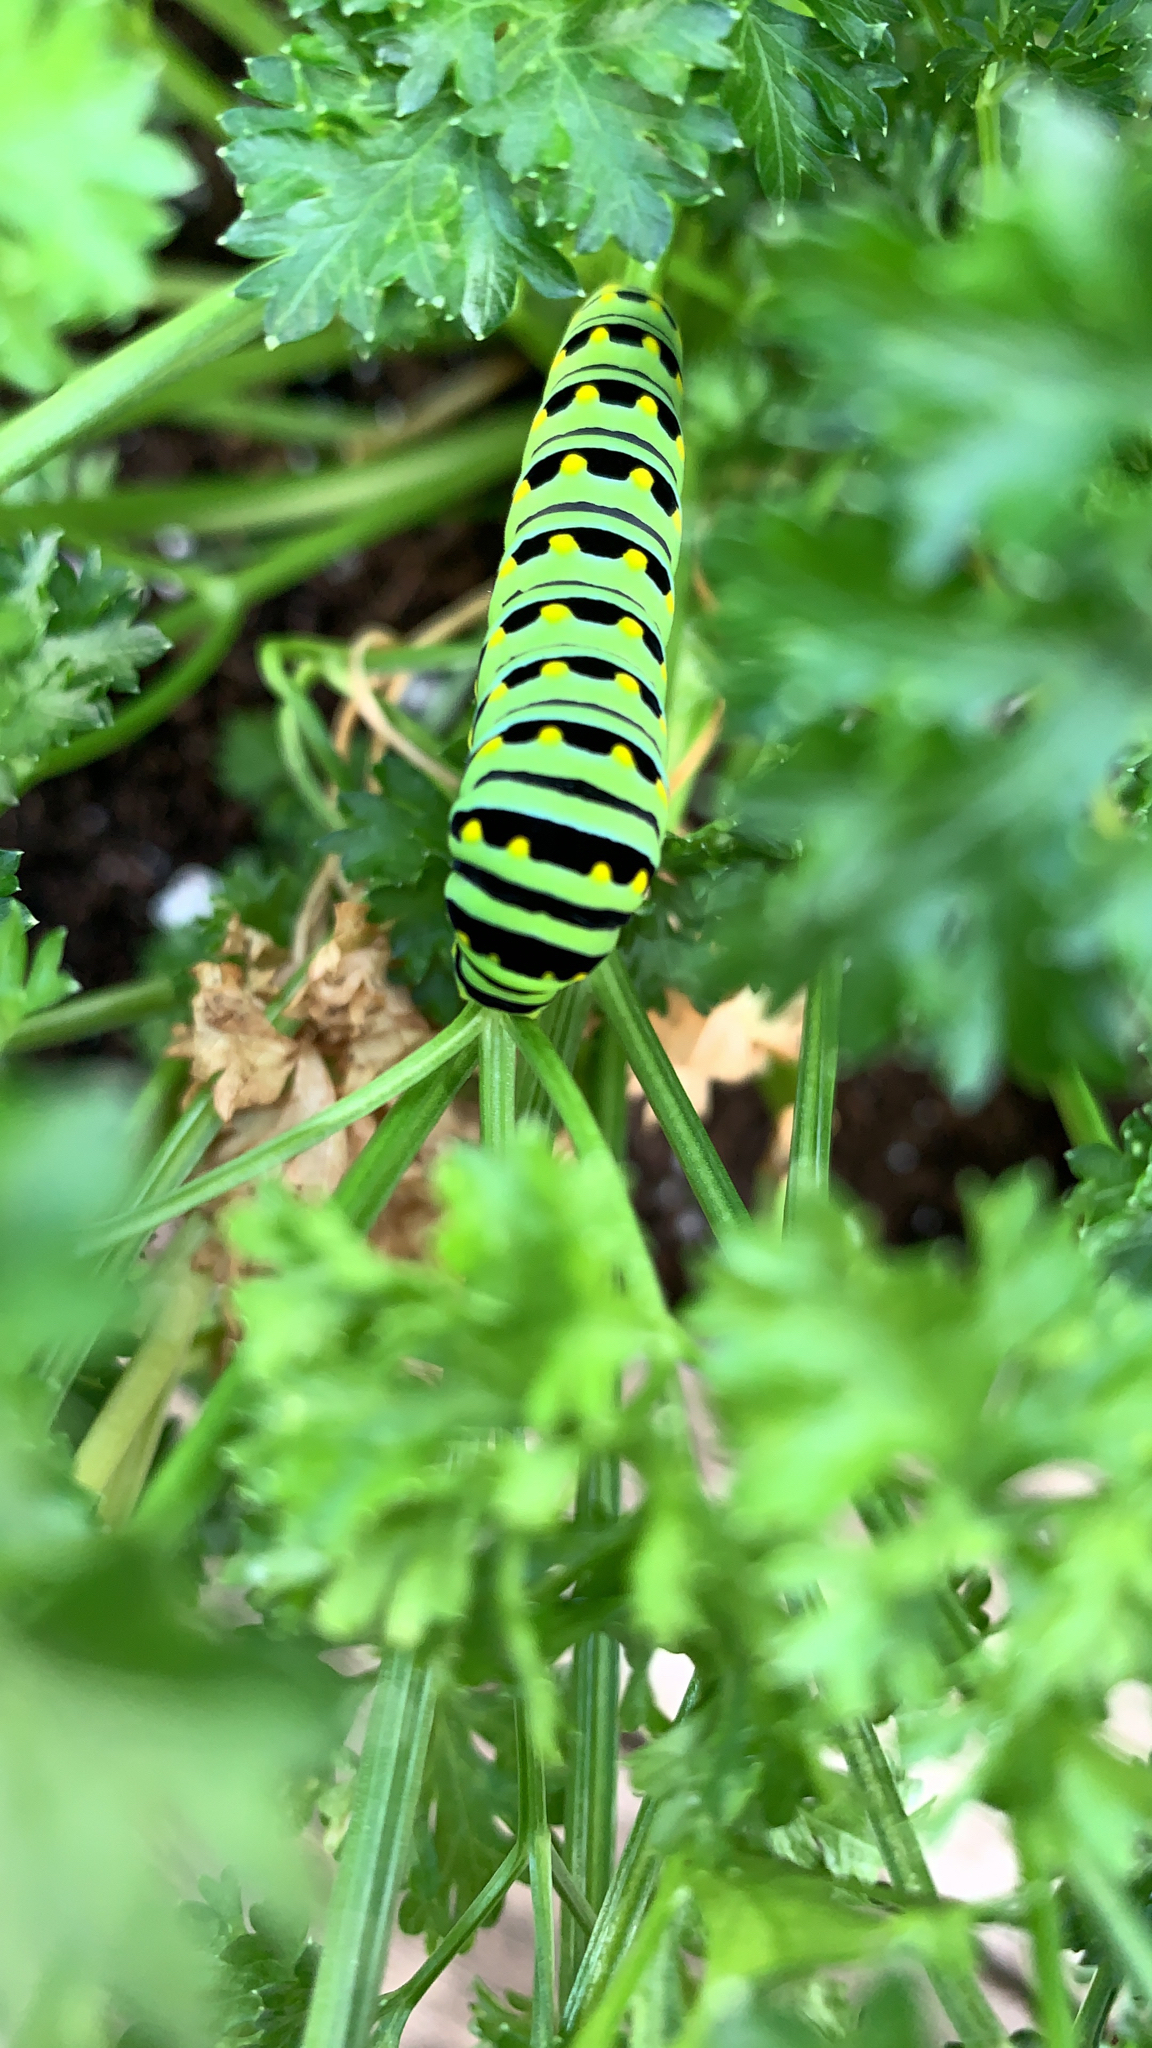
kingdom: Animalia
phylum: Arthropoda
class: Insecta
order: Lepidoptera
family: Papilionidae
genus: Papilio
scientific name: Papilio polyxenes
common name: Black swallowtail
